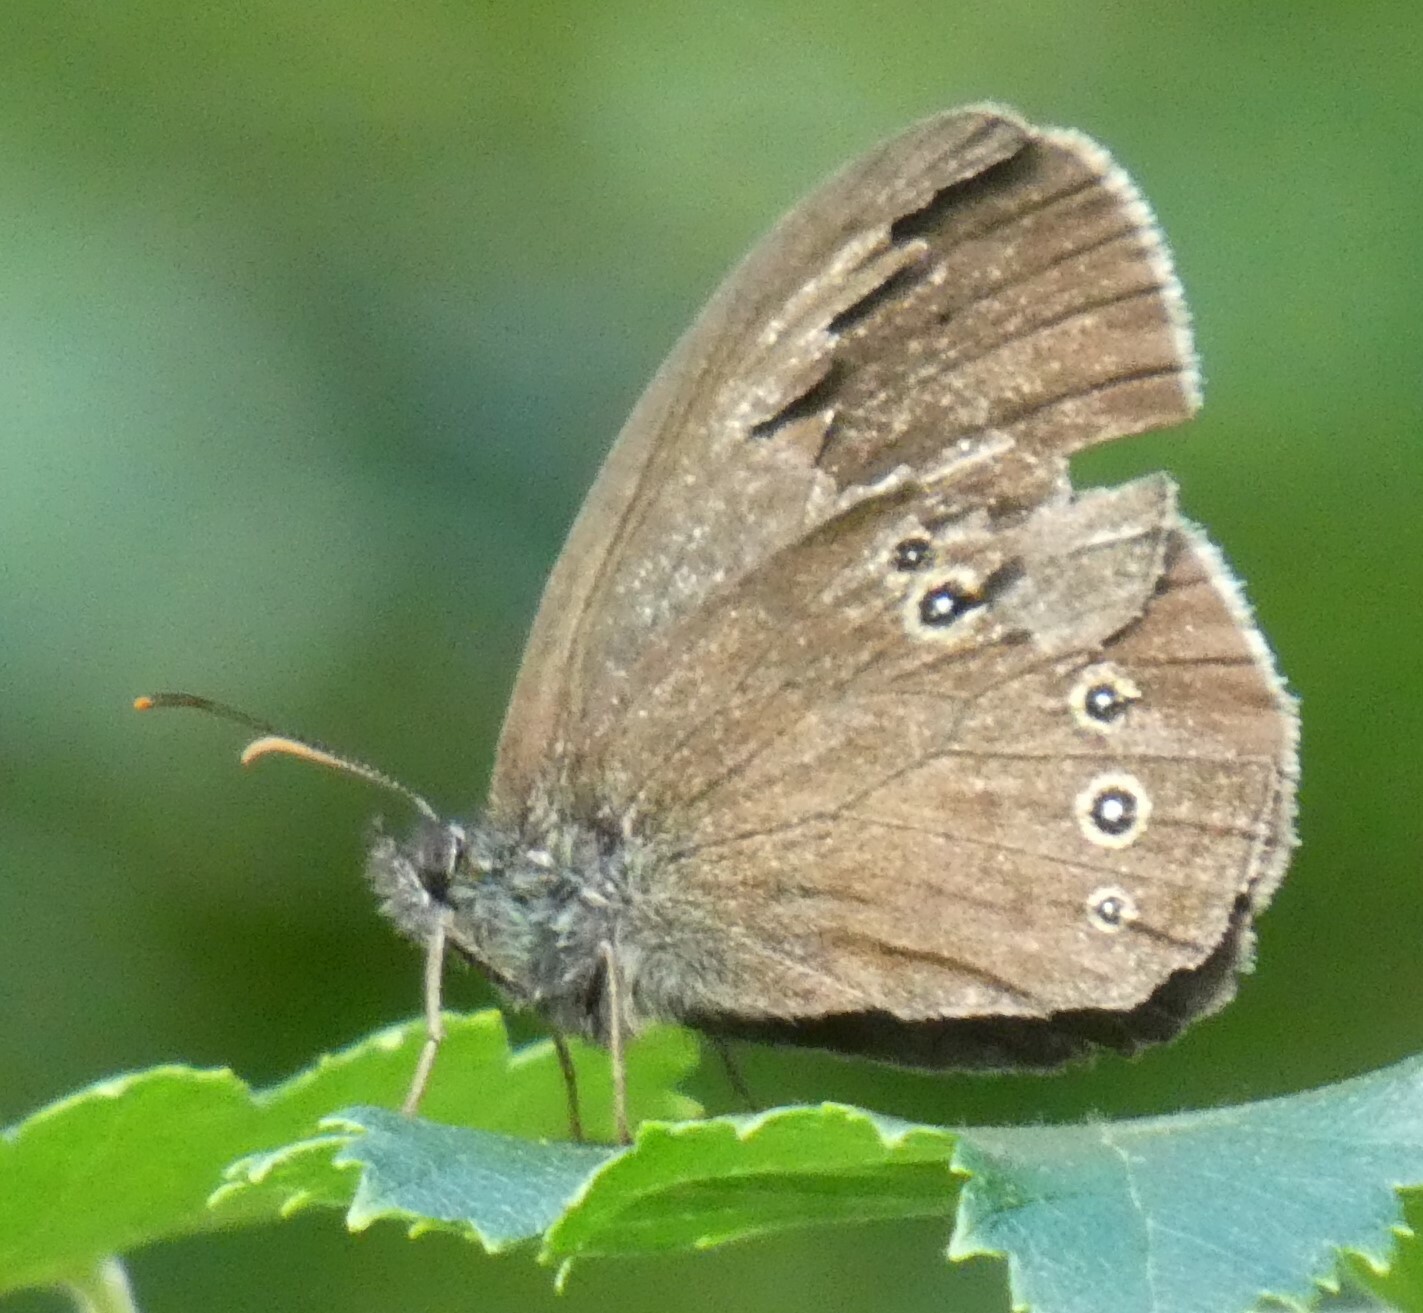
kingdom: Animalia
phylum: Arthropoda
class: Insecta
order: Lepidoptera
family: Nymphalidae
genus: Aphantopus
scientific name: Aphantopus hyperantus
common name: Ringlet
